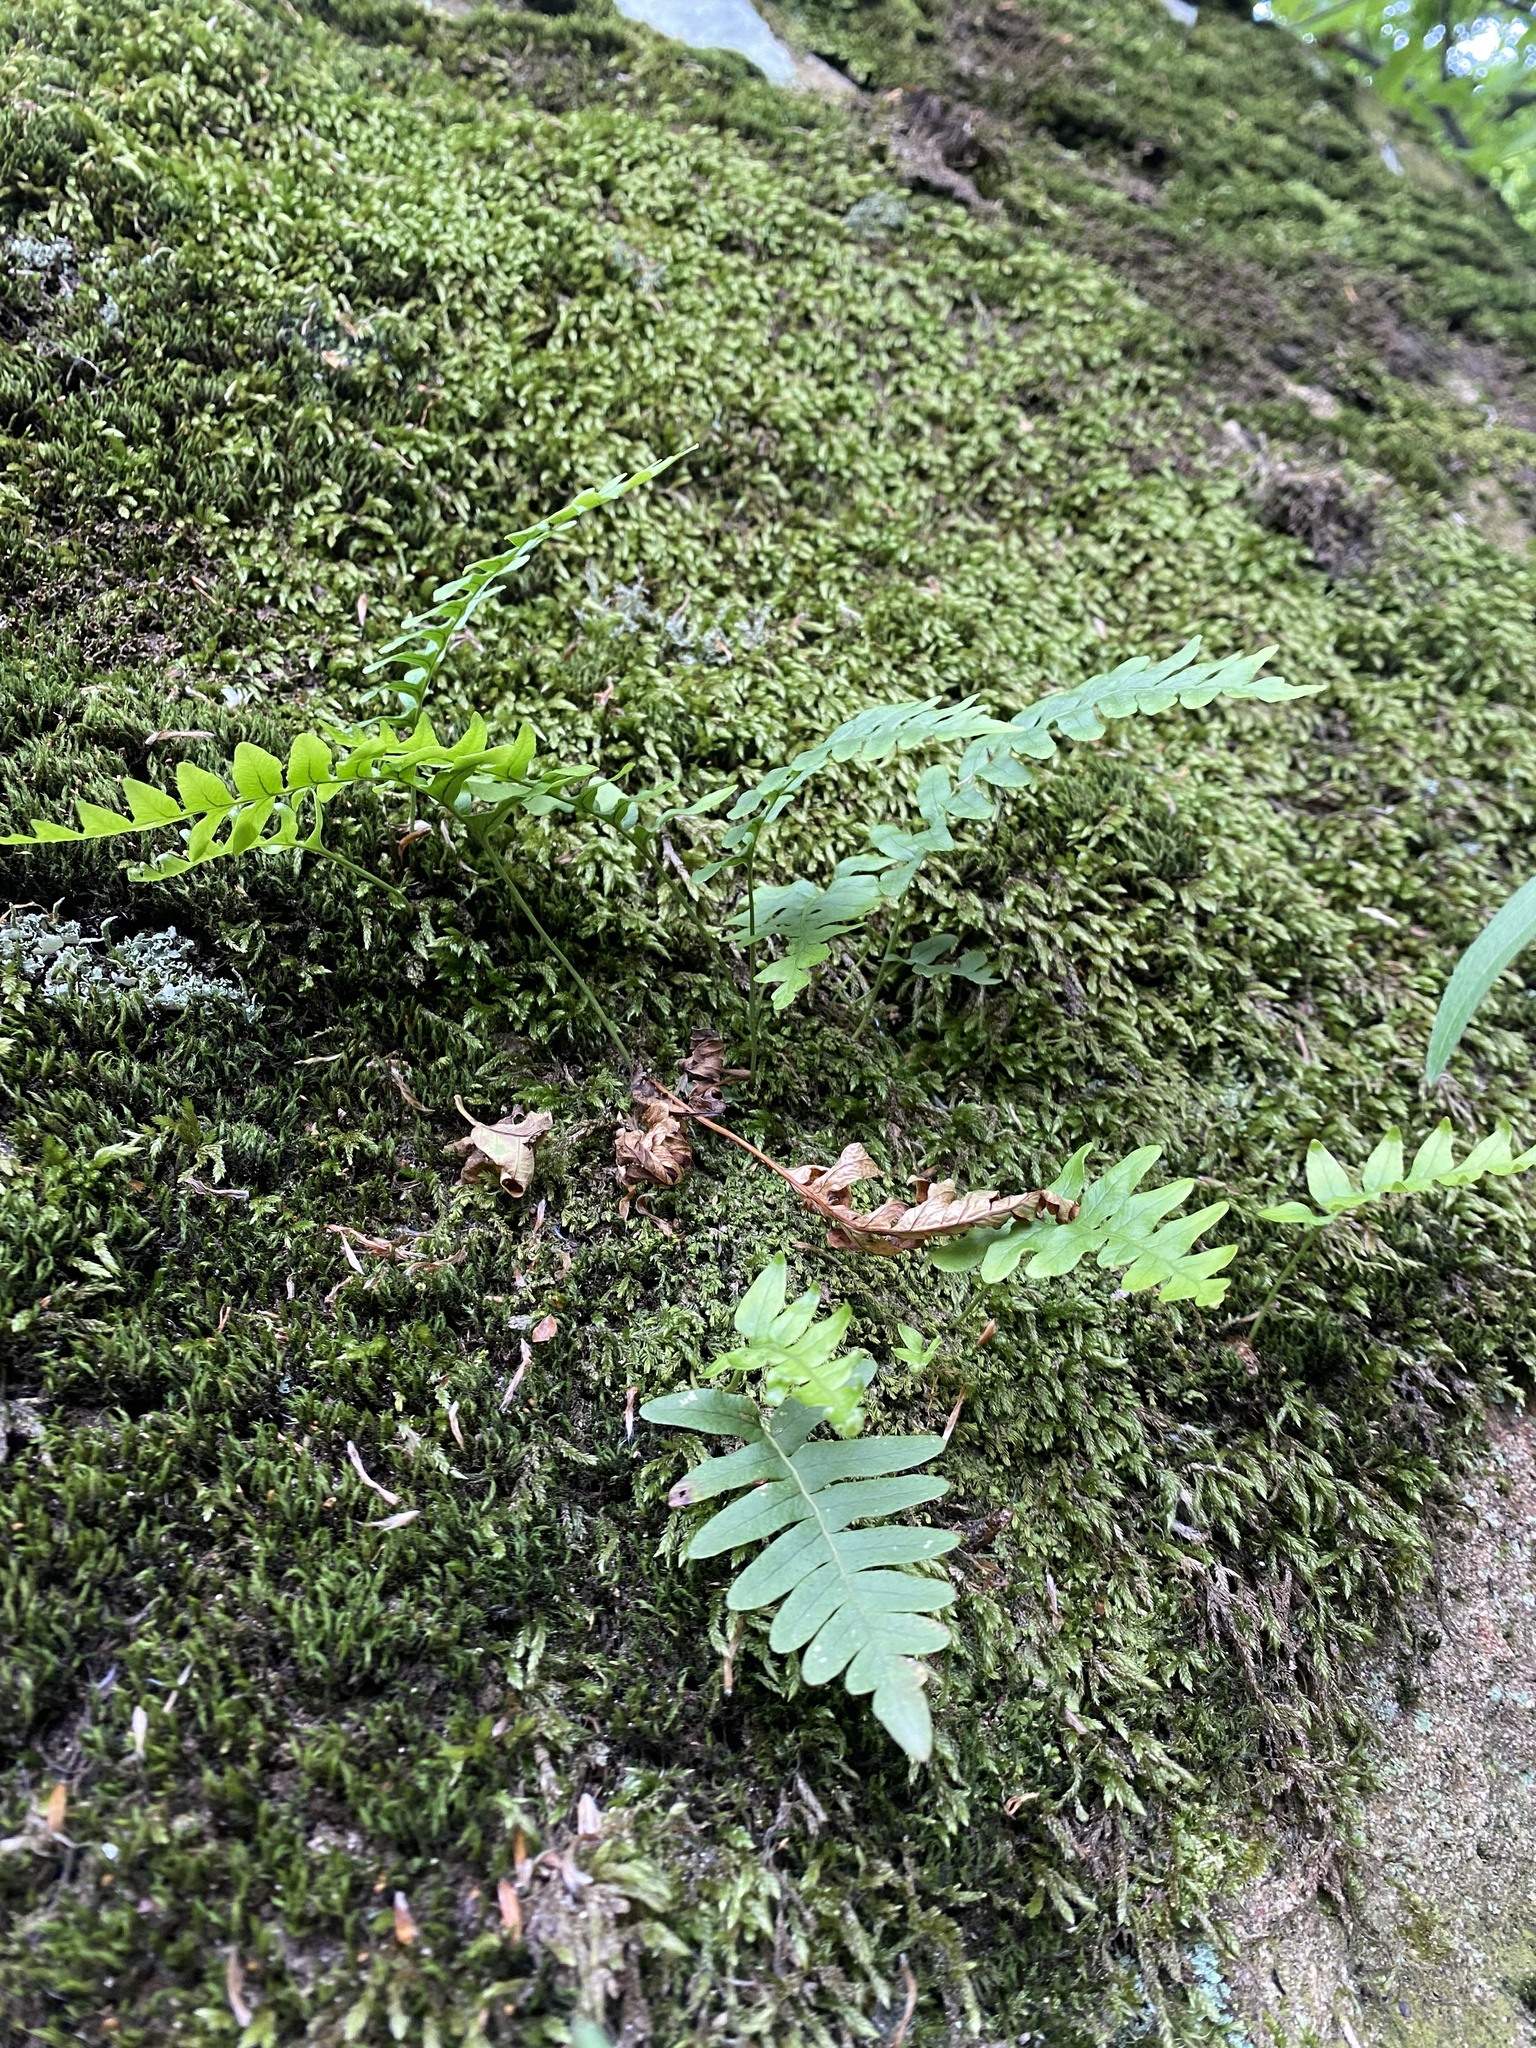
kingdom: Plantae
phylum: Tracheophyta
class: Polypodiopsida
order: Polypodiales
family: Polypodiaceae
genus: Polypodium
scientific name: Polypodium vulgare
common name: Common polypody
